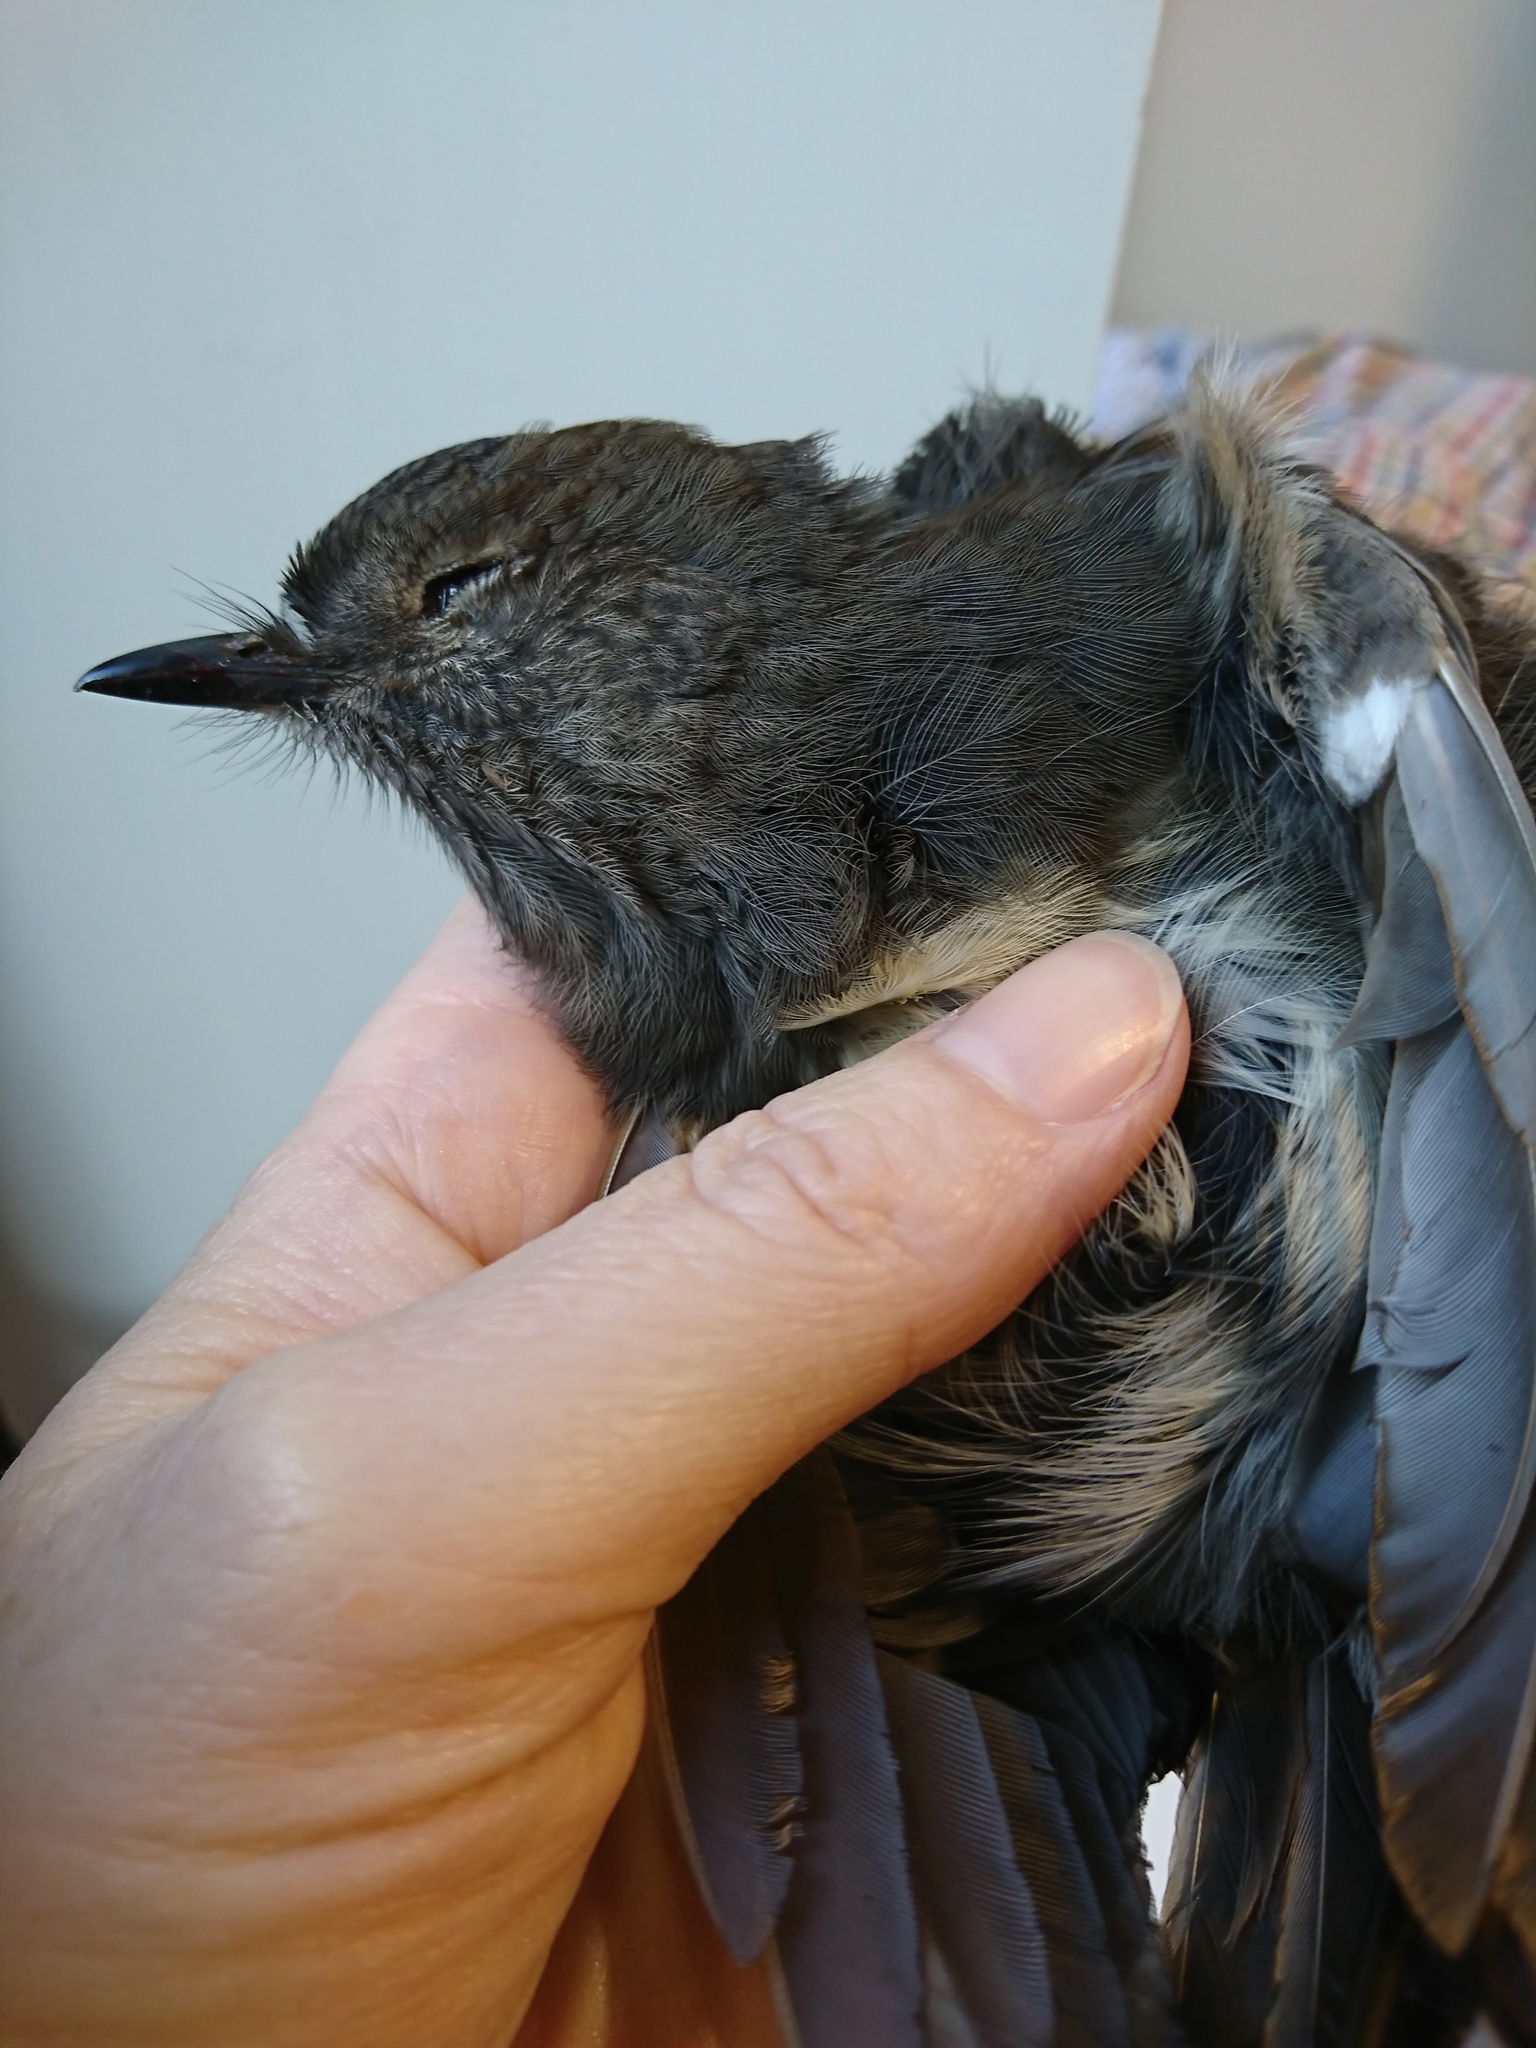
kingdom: Animalia
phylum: Chordata
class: Aves
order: Passeriformes
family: Petroicidae
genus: Petroica
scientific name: Petroica australis
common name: New zealand robin
